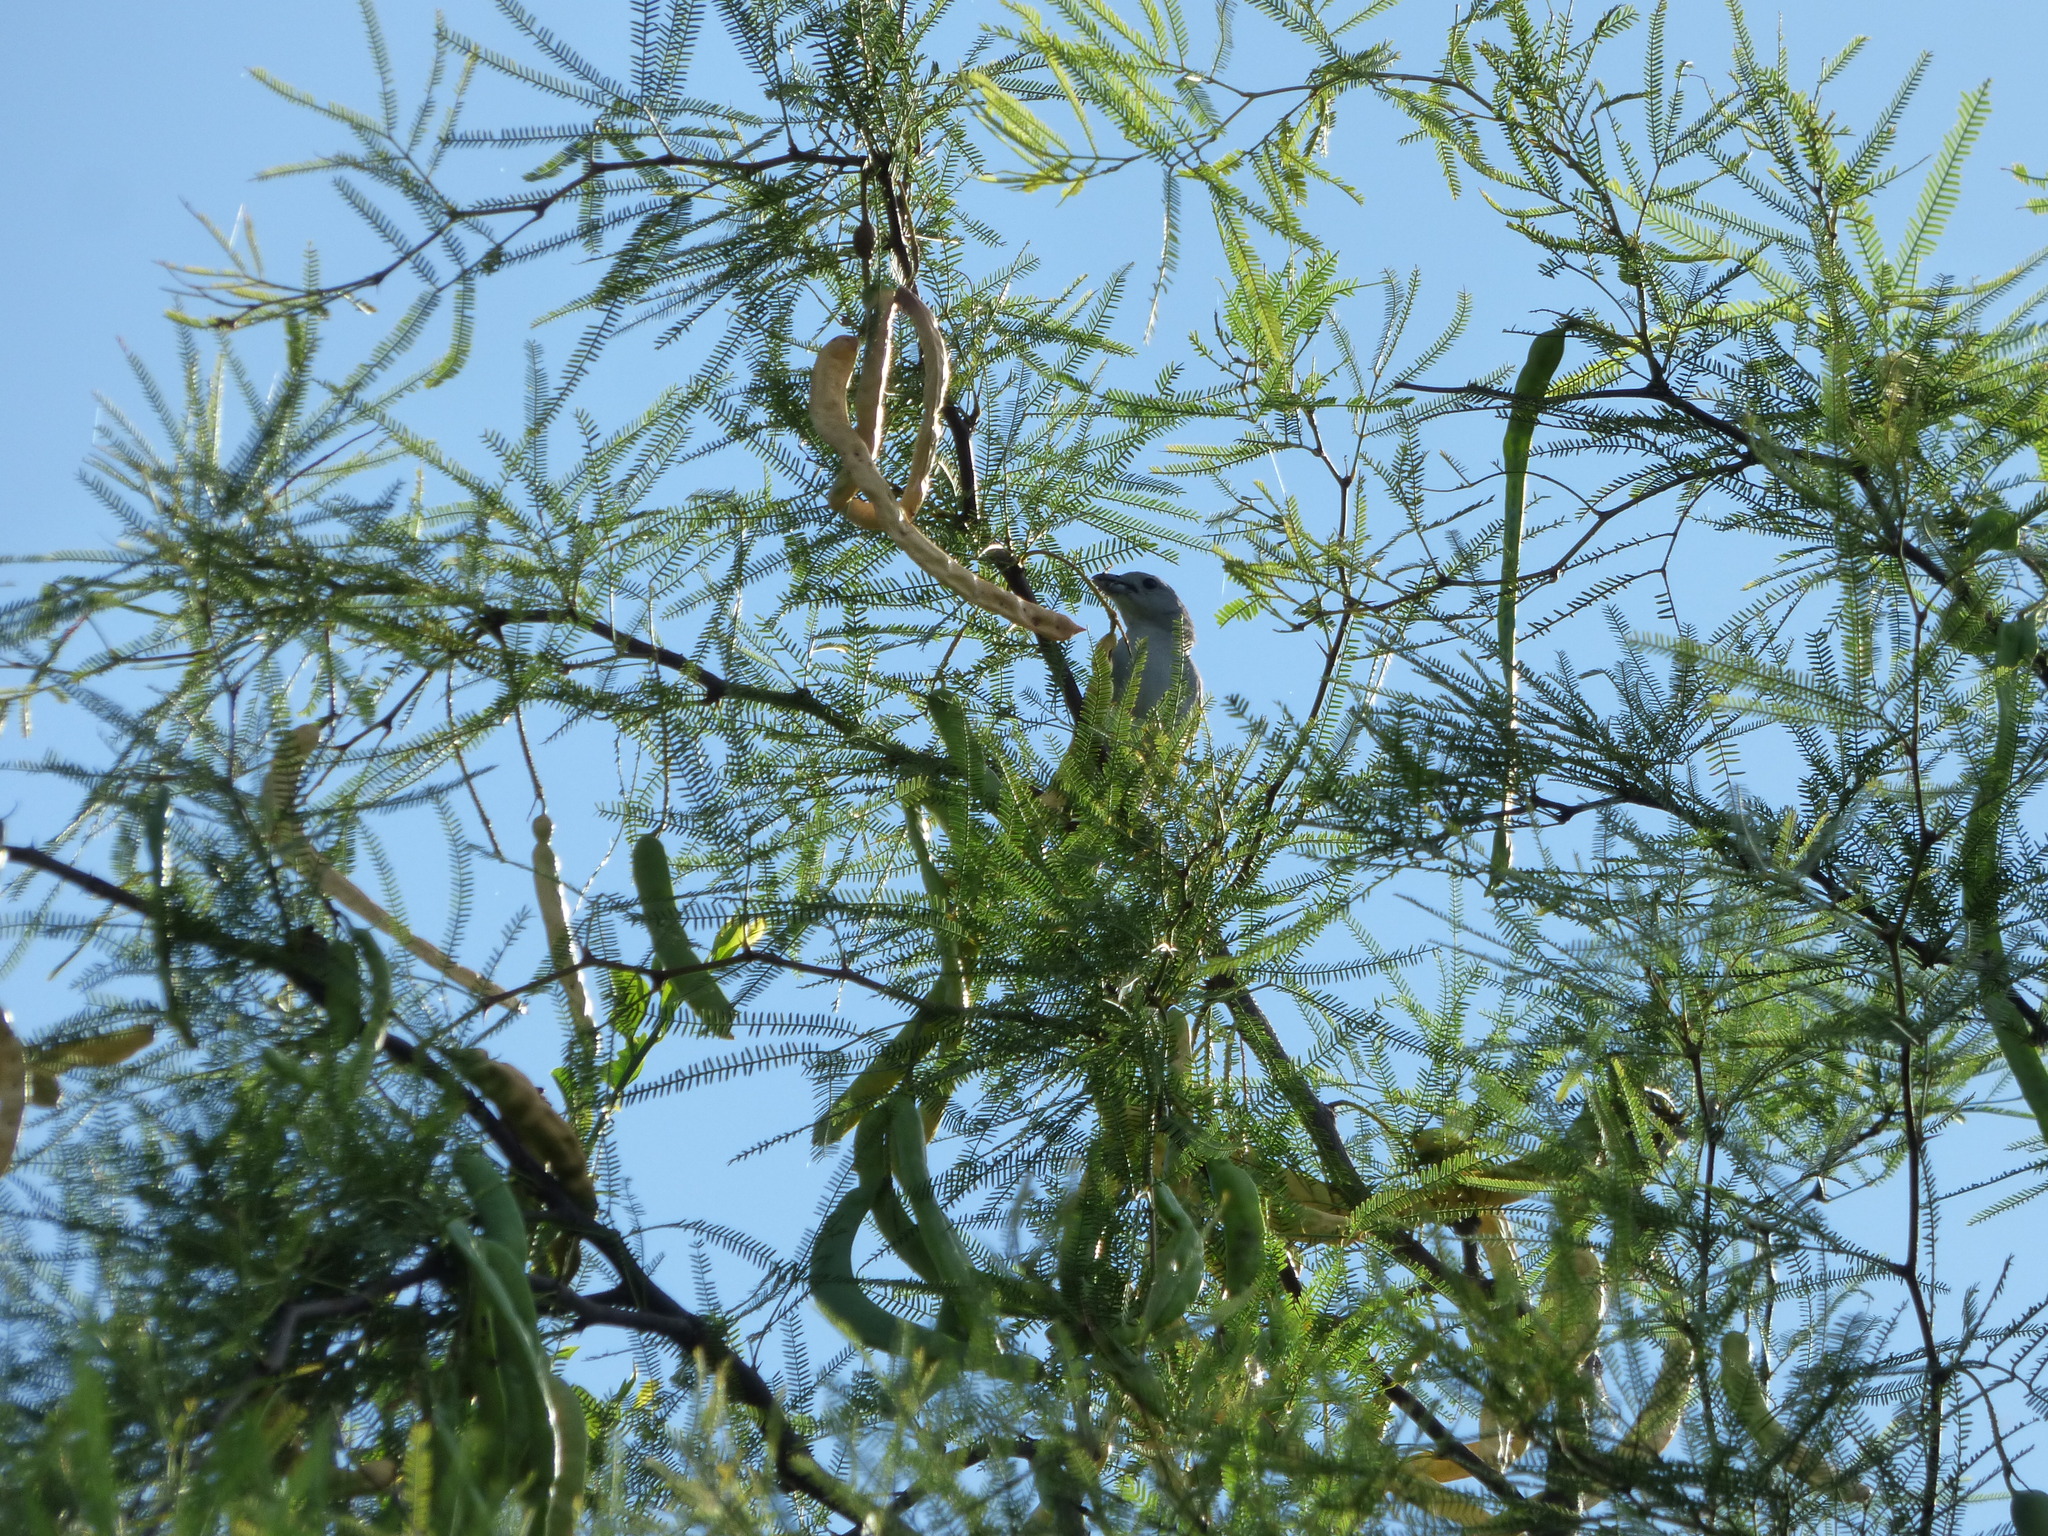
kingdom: Animalia
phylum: Chordata
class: Aves
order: Passeriformes
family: Thraupidae
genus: Thraupis
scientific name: Thraupis sayaca
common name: Sayaca tanager
